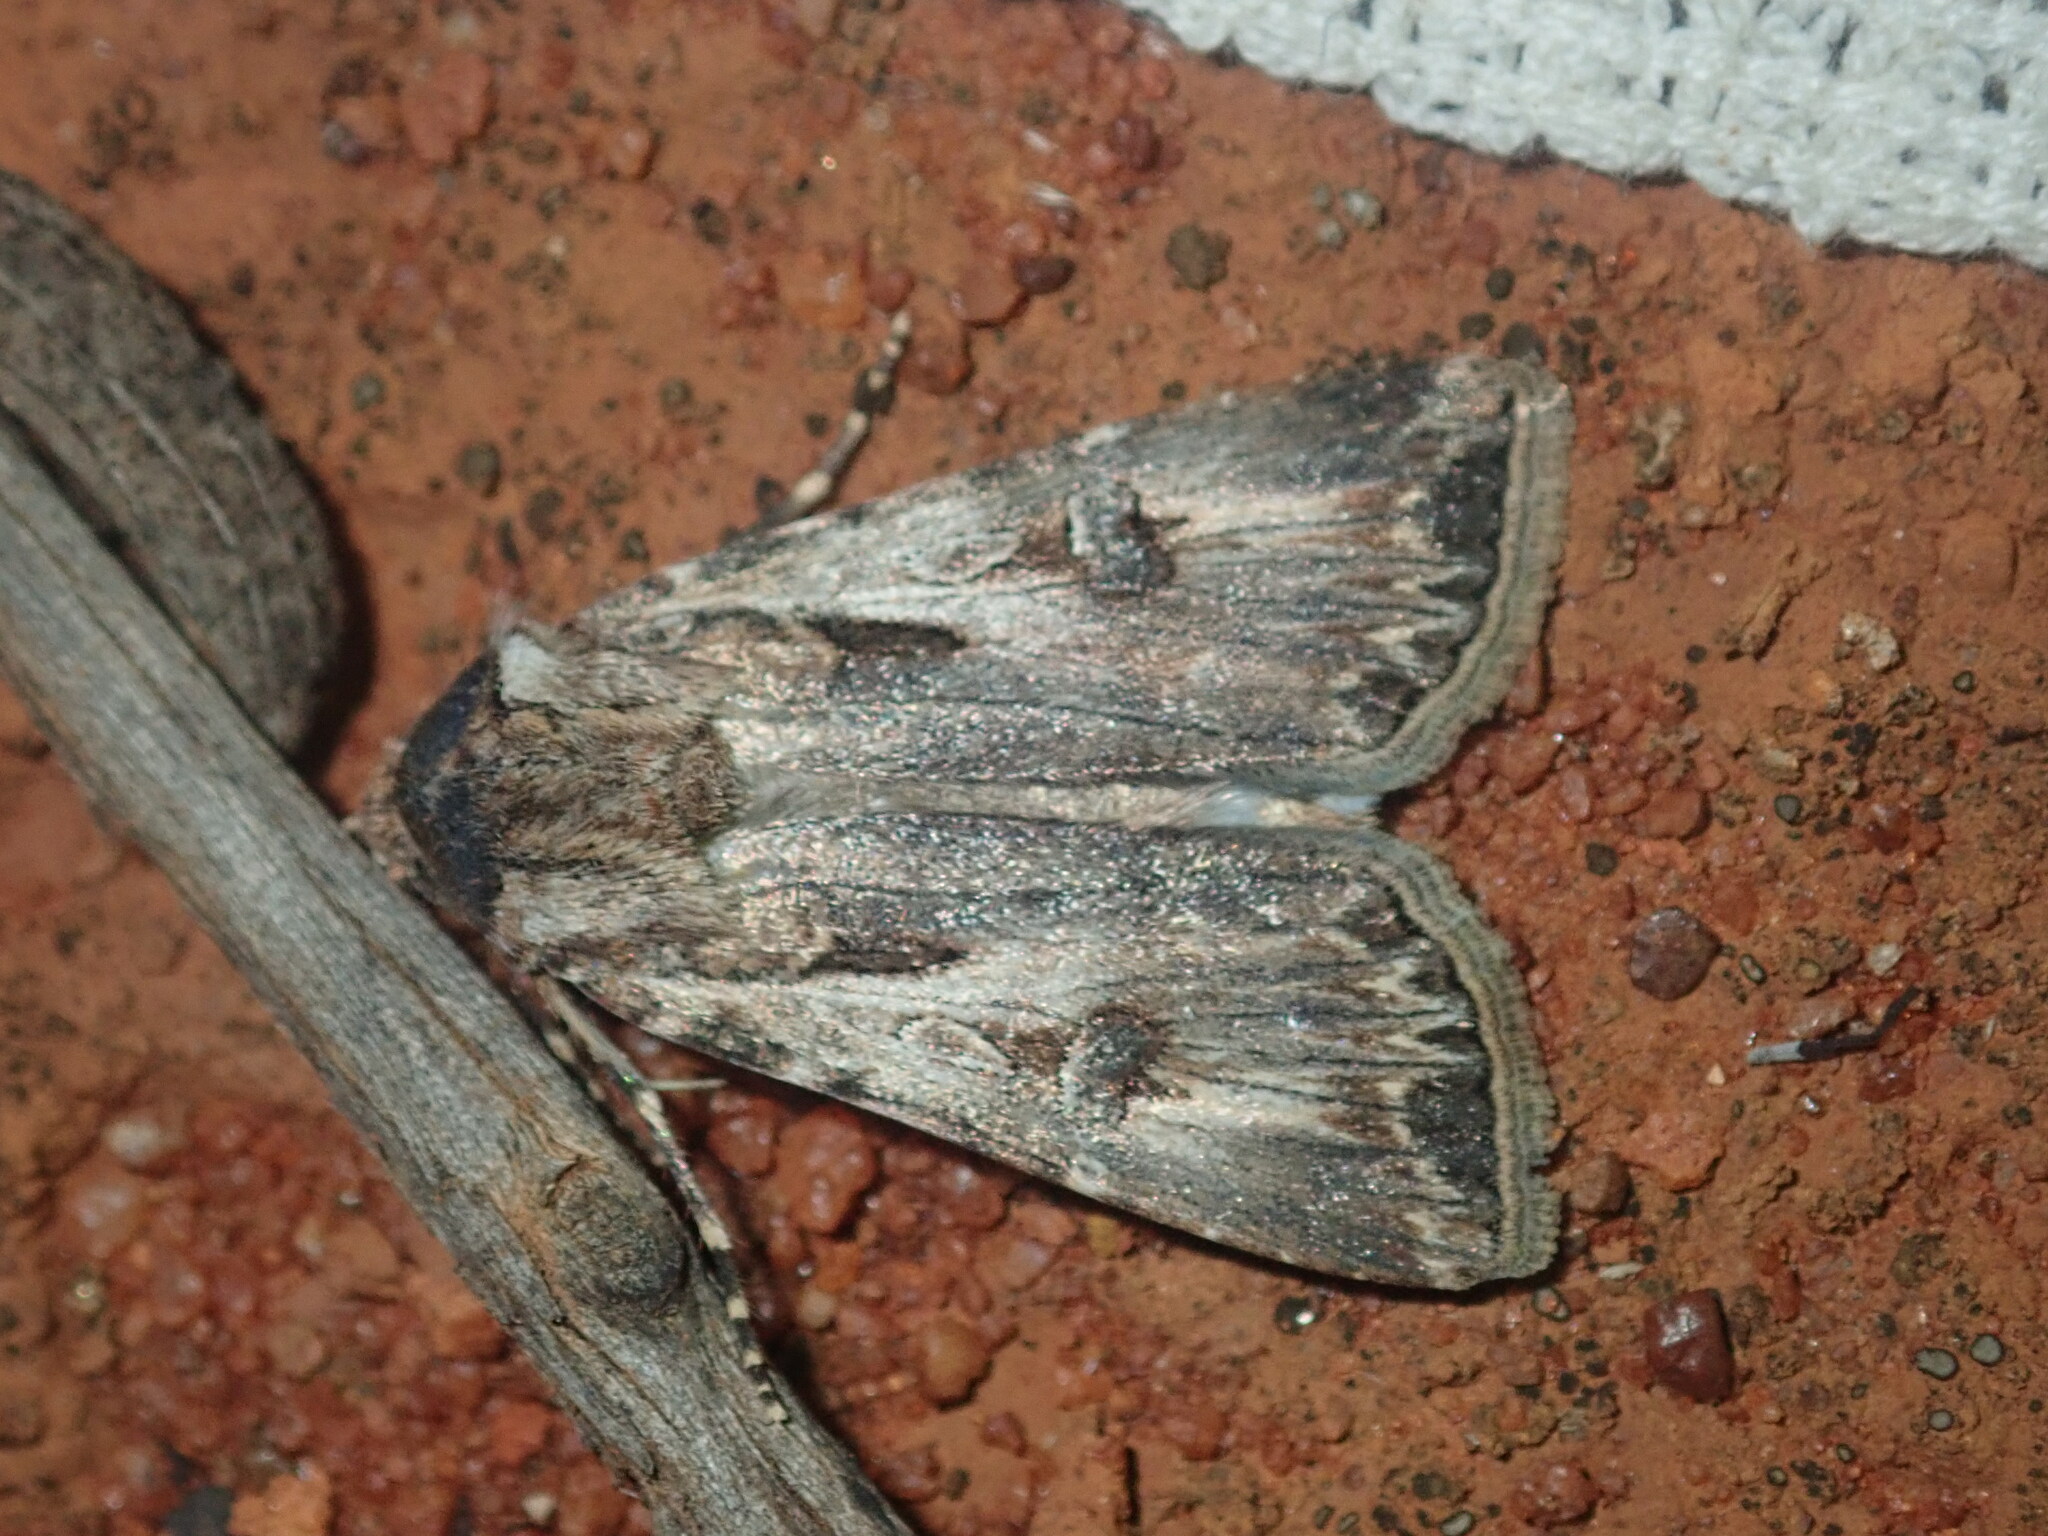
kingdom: Animalia
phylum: Arthropoda
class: Insecta
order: Lepidoptera
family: Noctuidae
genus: Agrotis
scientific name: Agrotis munda
